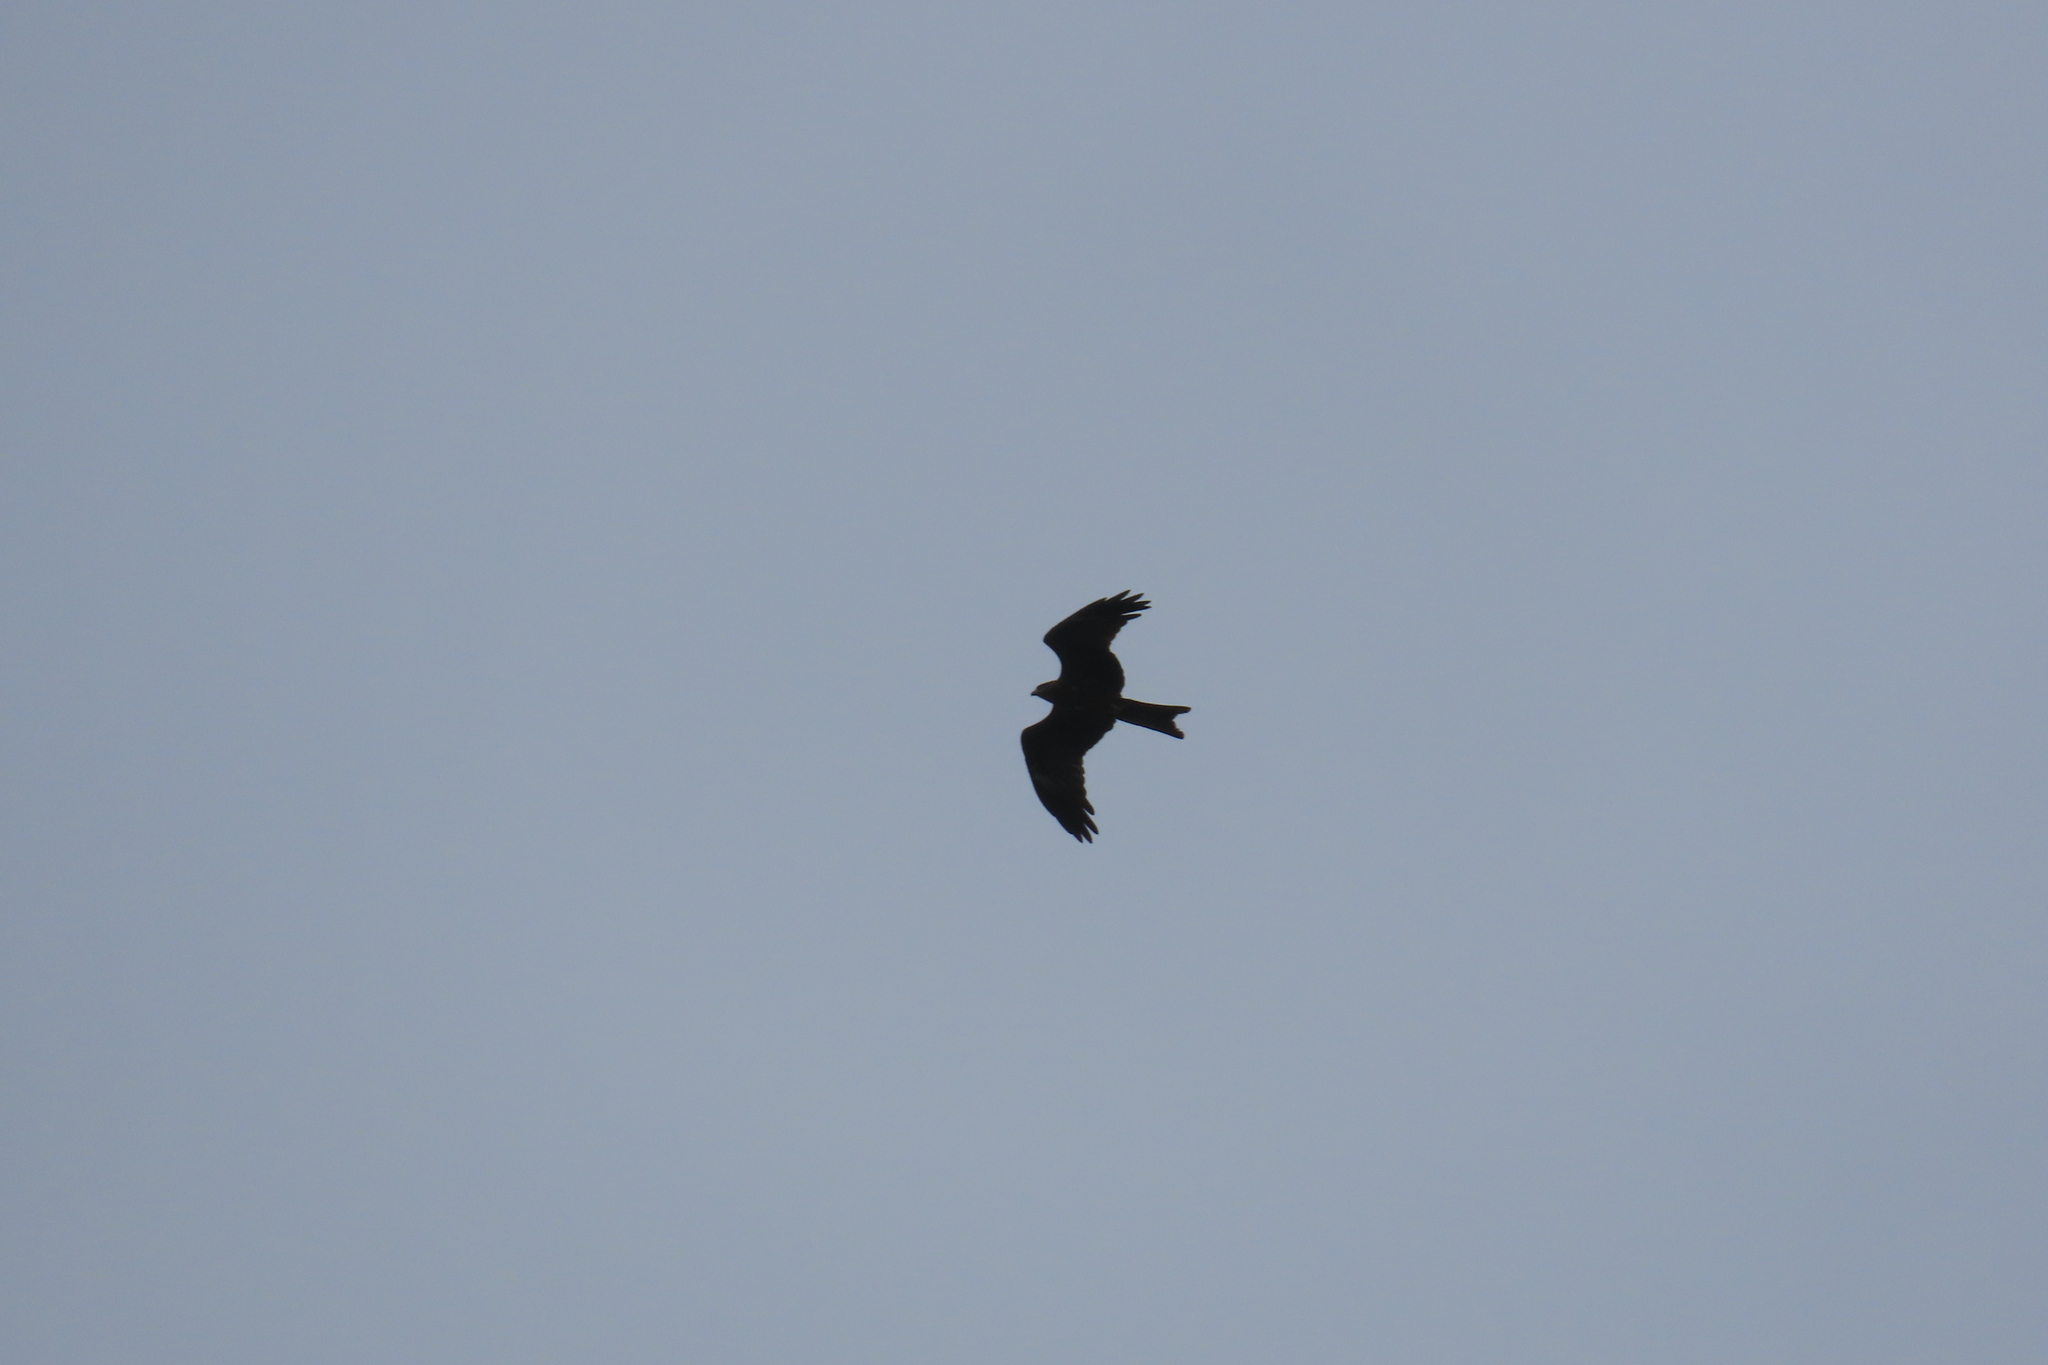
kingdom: Animalia
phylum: Chordata
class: Aves
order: Accipitriformes
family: Accipitridae
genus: Milvus
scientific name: Milvus migrans
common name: Black kite
